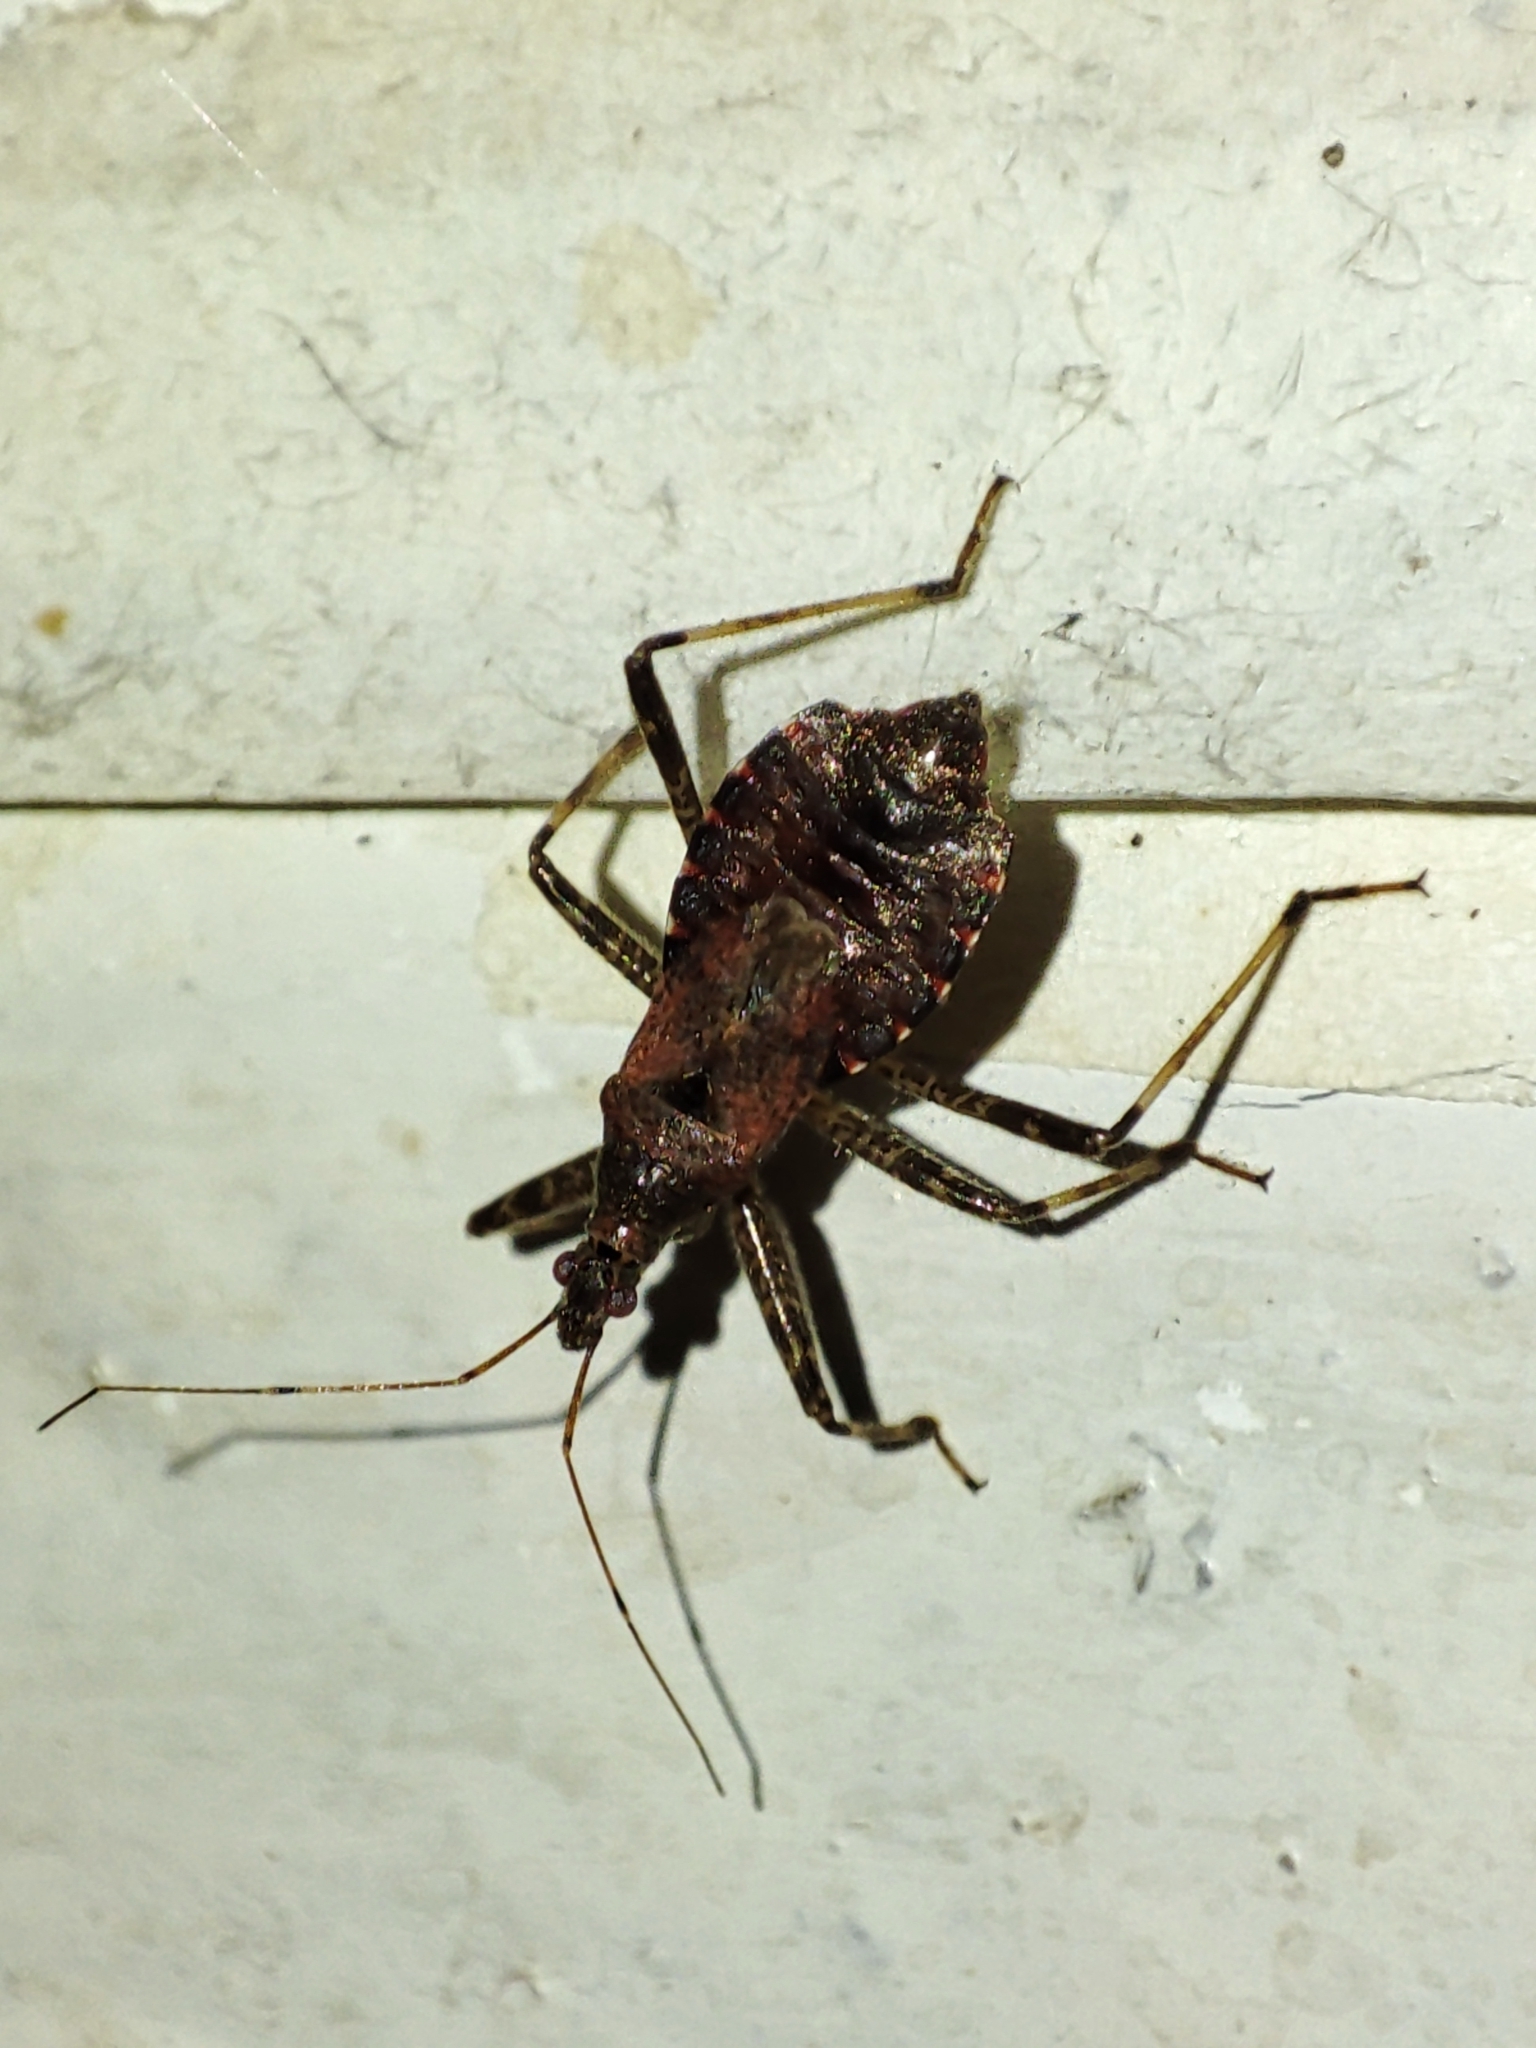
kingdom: Animalia
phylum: Arthropoda
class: Insecta
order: Hemiptera
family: Nabidae
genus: Himacerus
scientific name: Himacerus apterus
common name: Tree damsel bug
